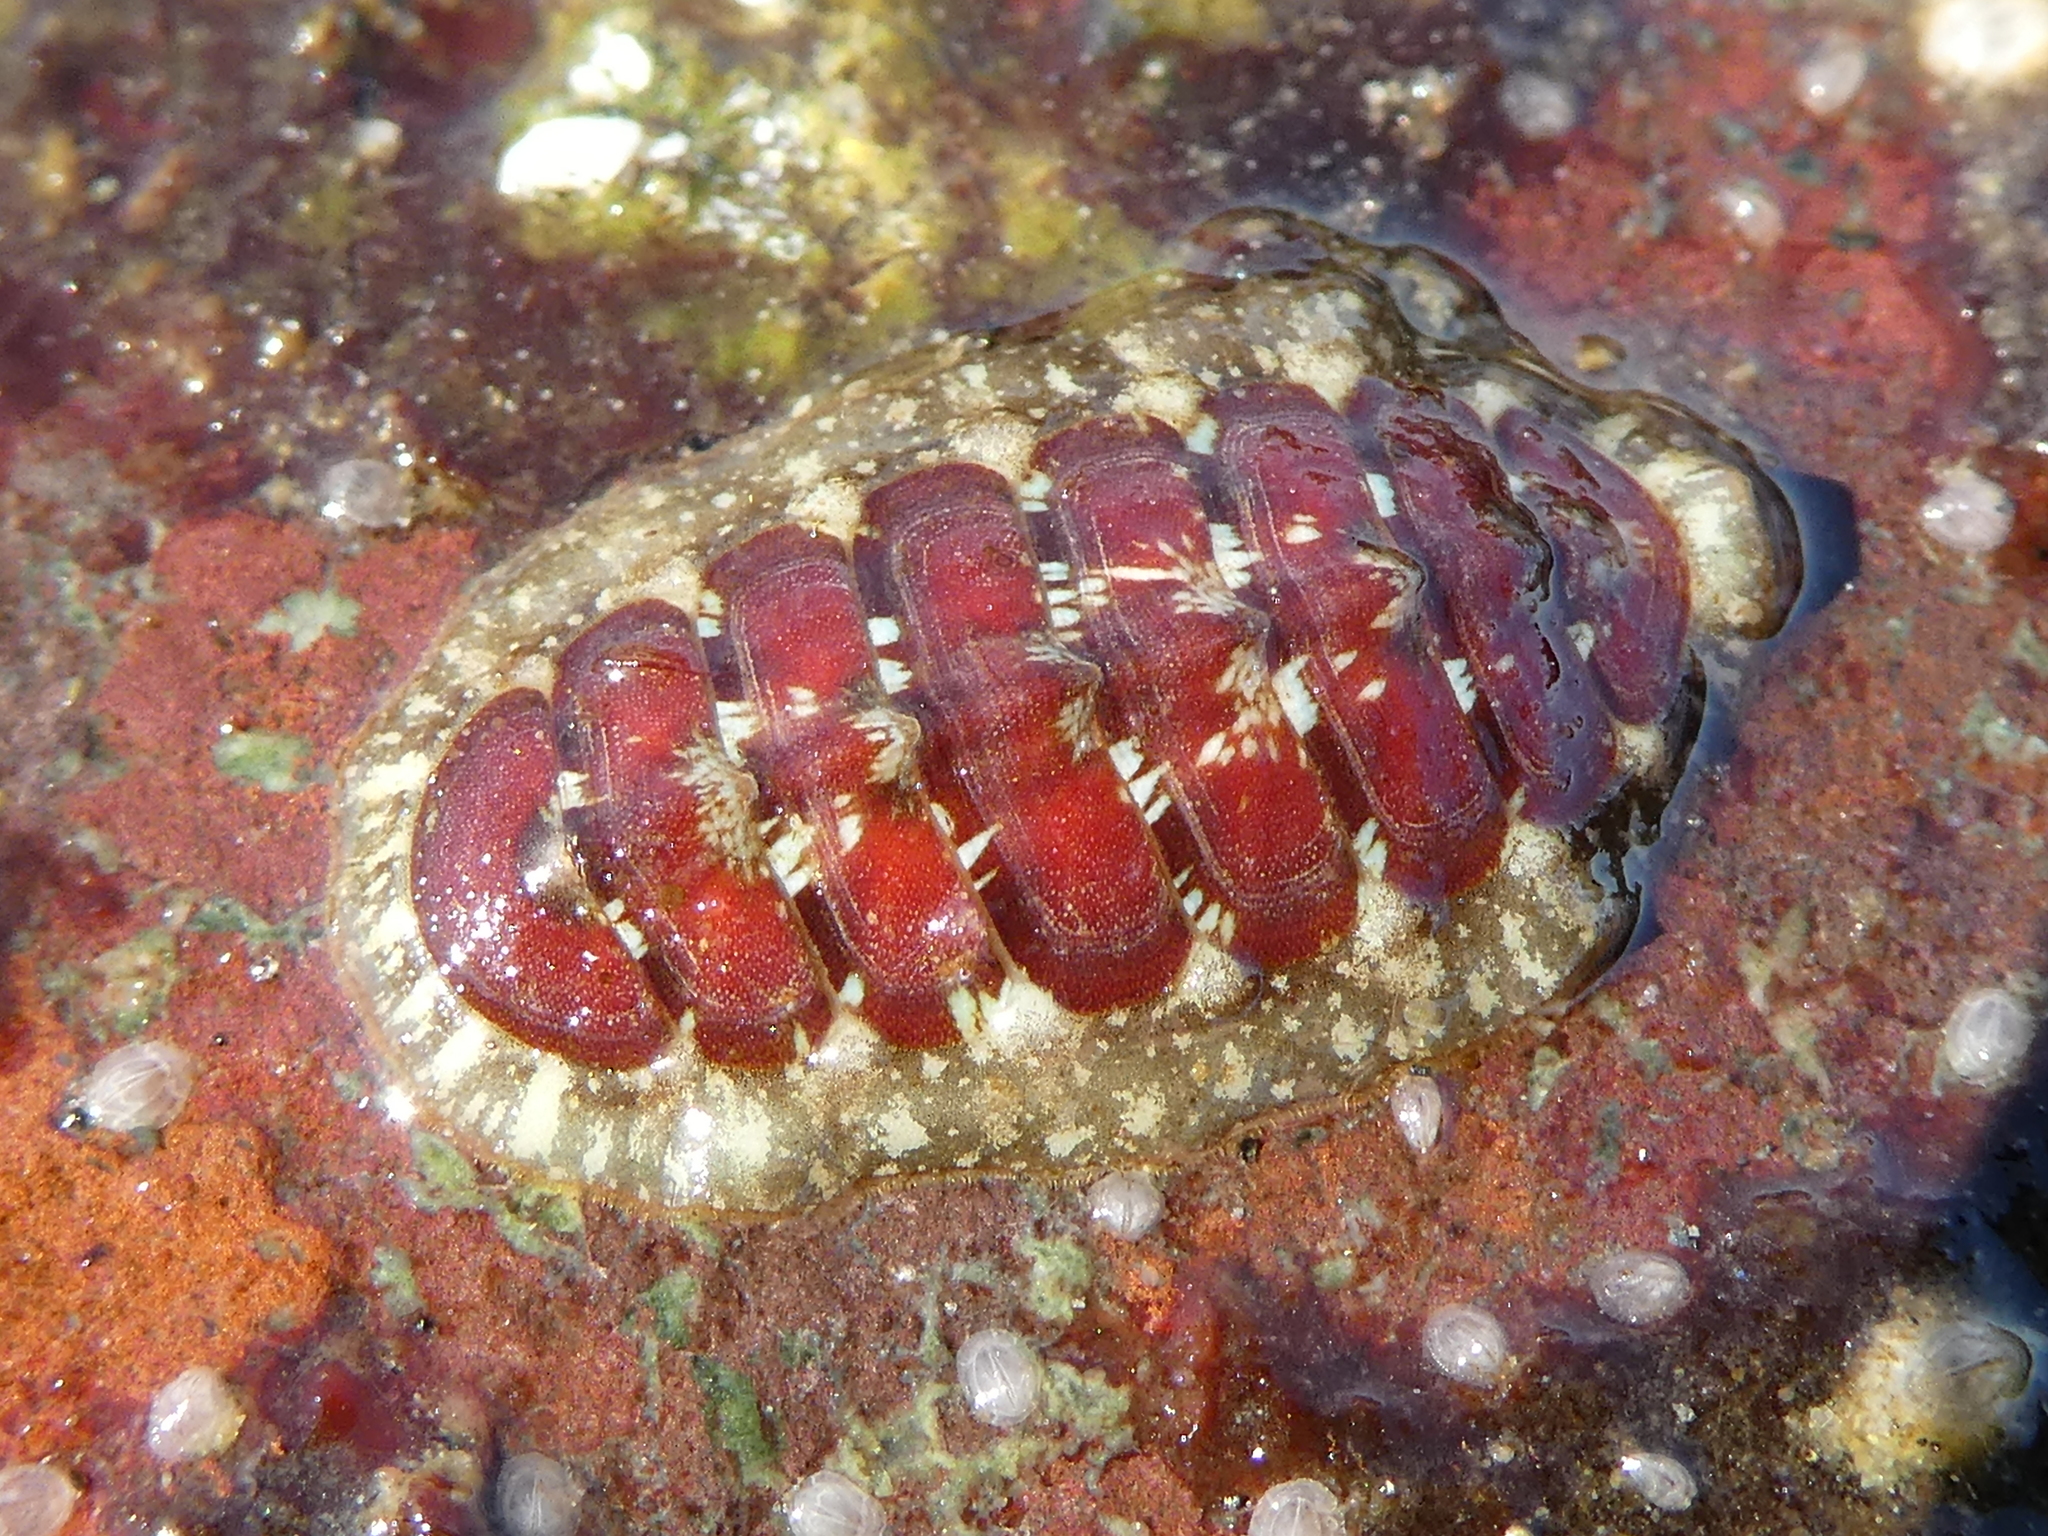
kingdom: Animalia
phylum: Mollusca
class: Polyplacophora
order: Chitonida
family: Tonicellidae
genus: Cyanoplax
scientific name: Cyanoplax dentiens
